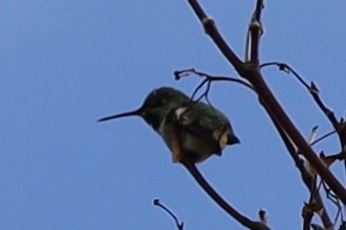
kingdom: Animalia
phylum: Chordata
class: Aves
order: Apodiformes
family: Trochilidae
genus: Selasphorus
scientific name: Selasphorus rufus
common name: Rufous hummingbird
